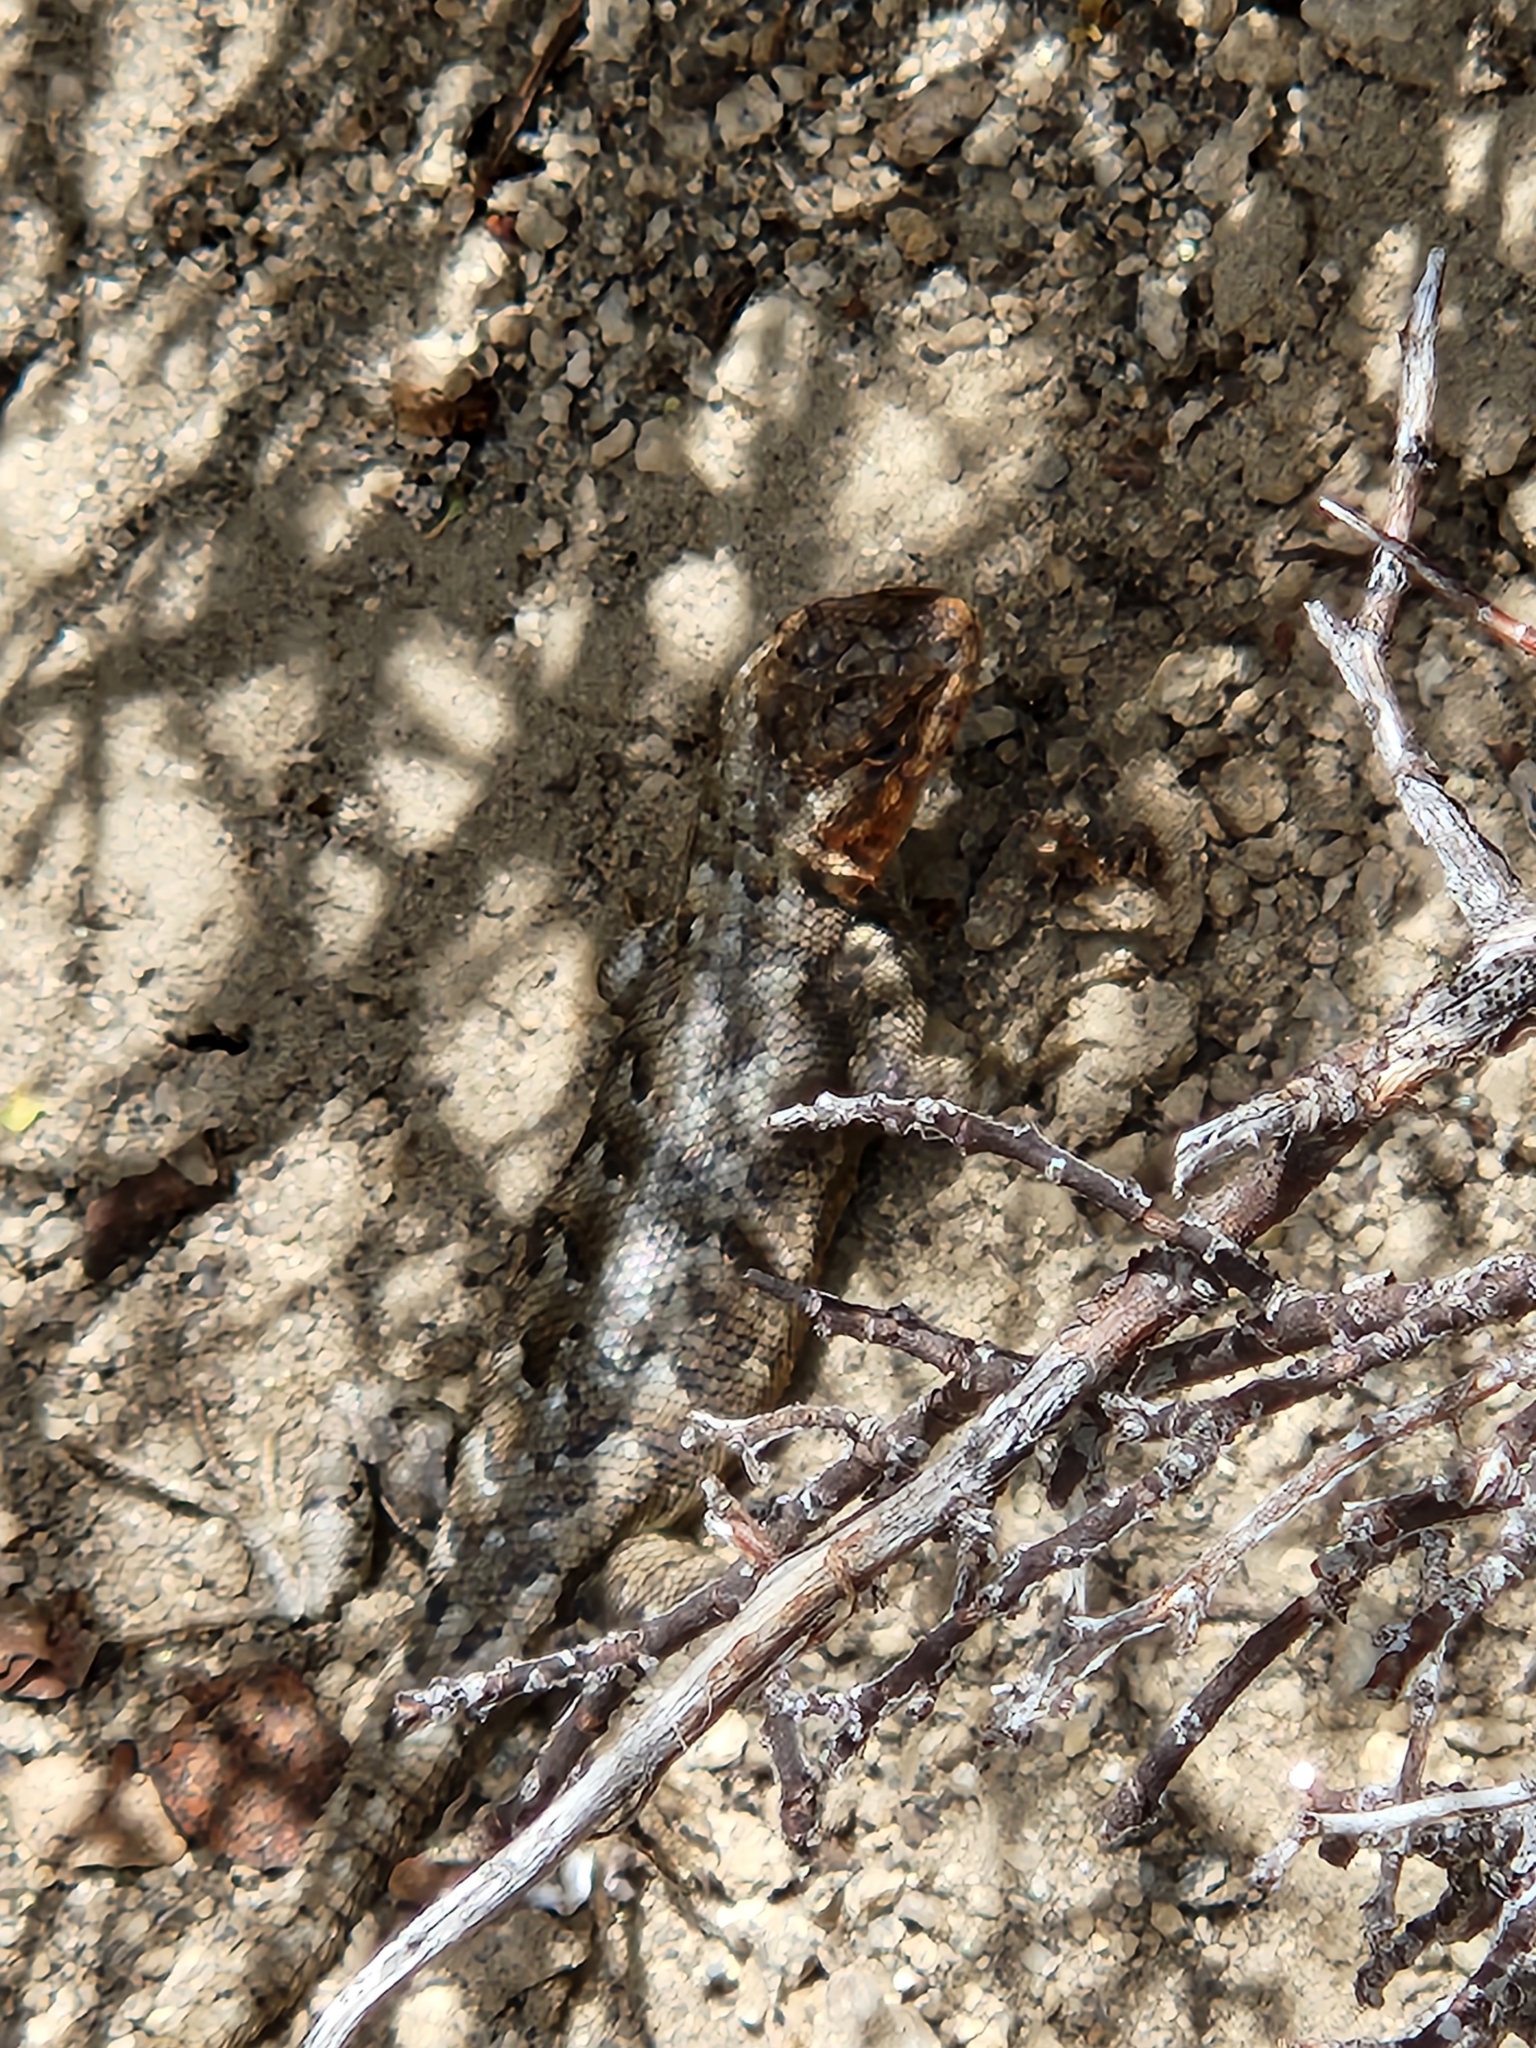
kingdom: Animalia
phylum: Chordata
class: Squamata
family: Phrynosomatidae
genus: Sceloporus
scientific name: Sceloporus graciosus
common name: Sagebrush lizard
